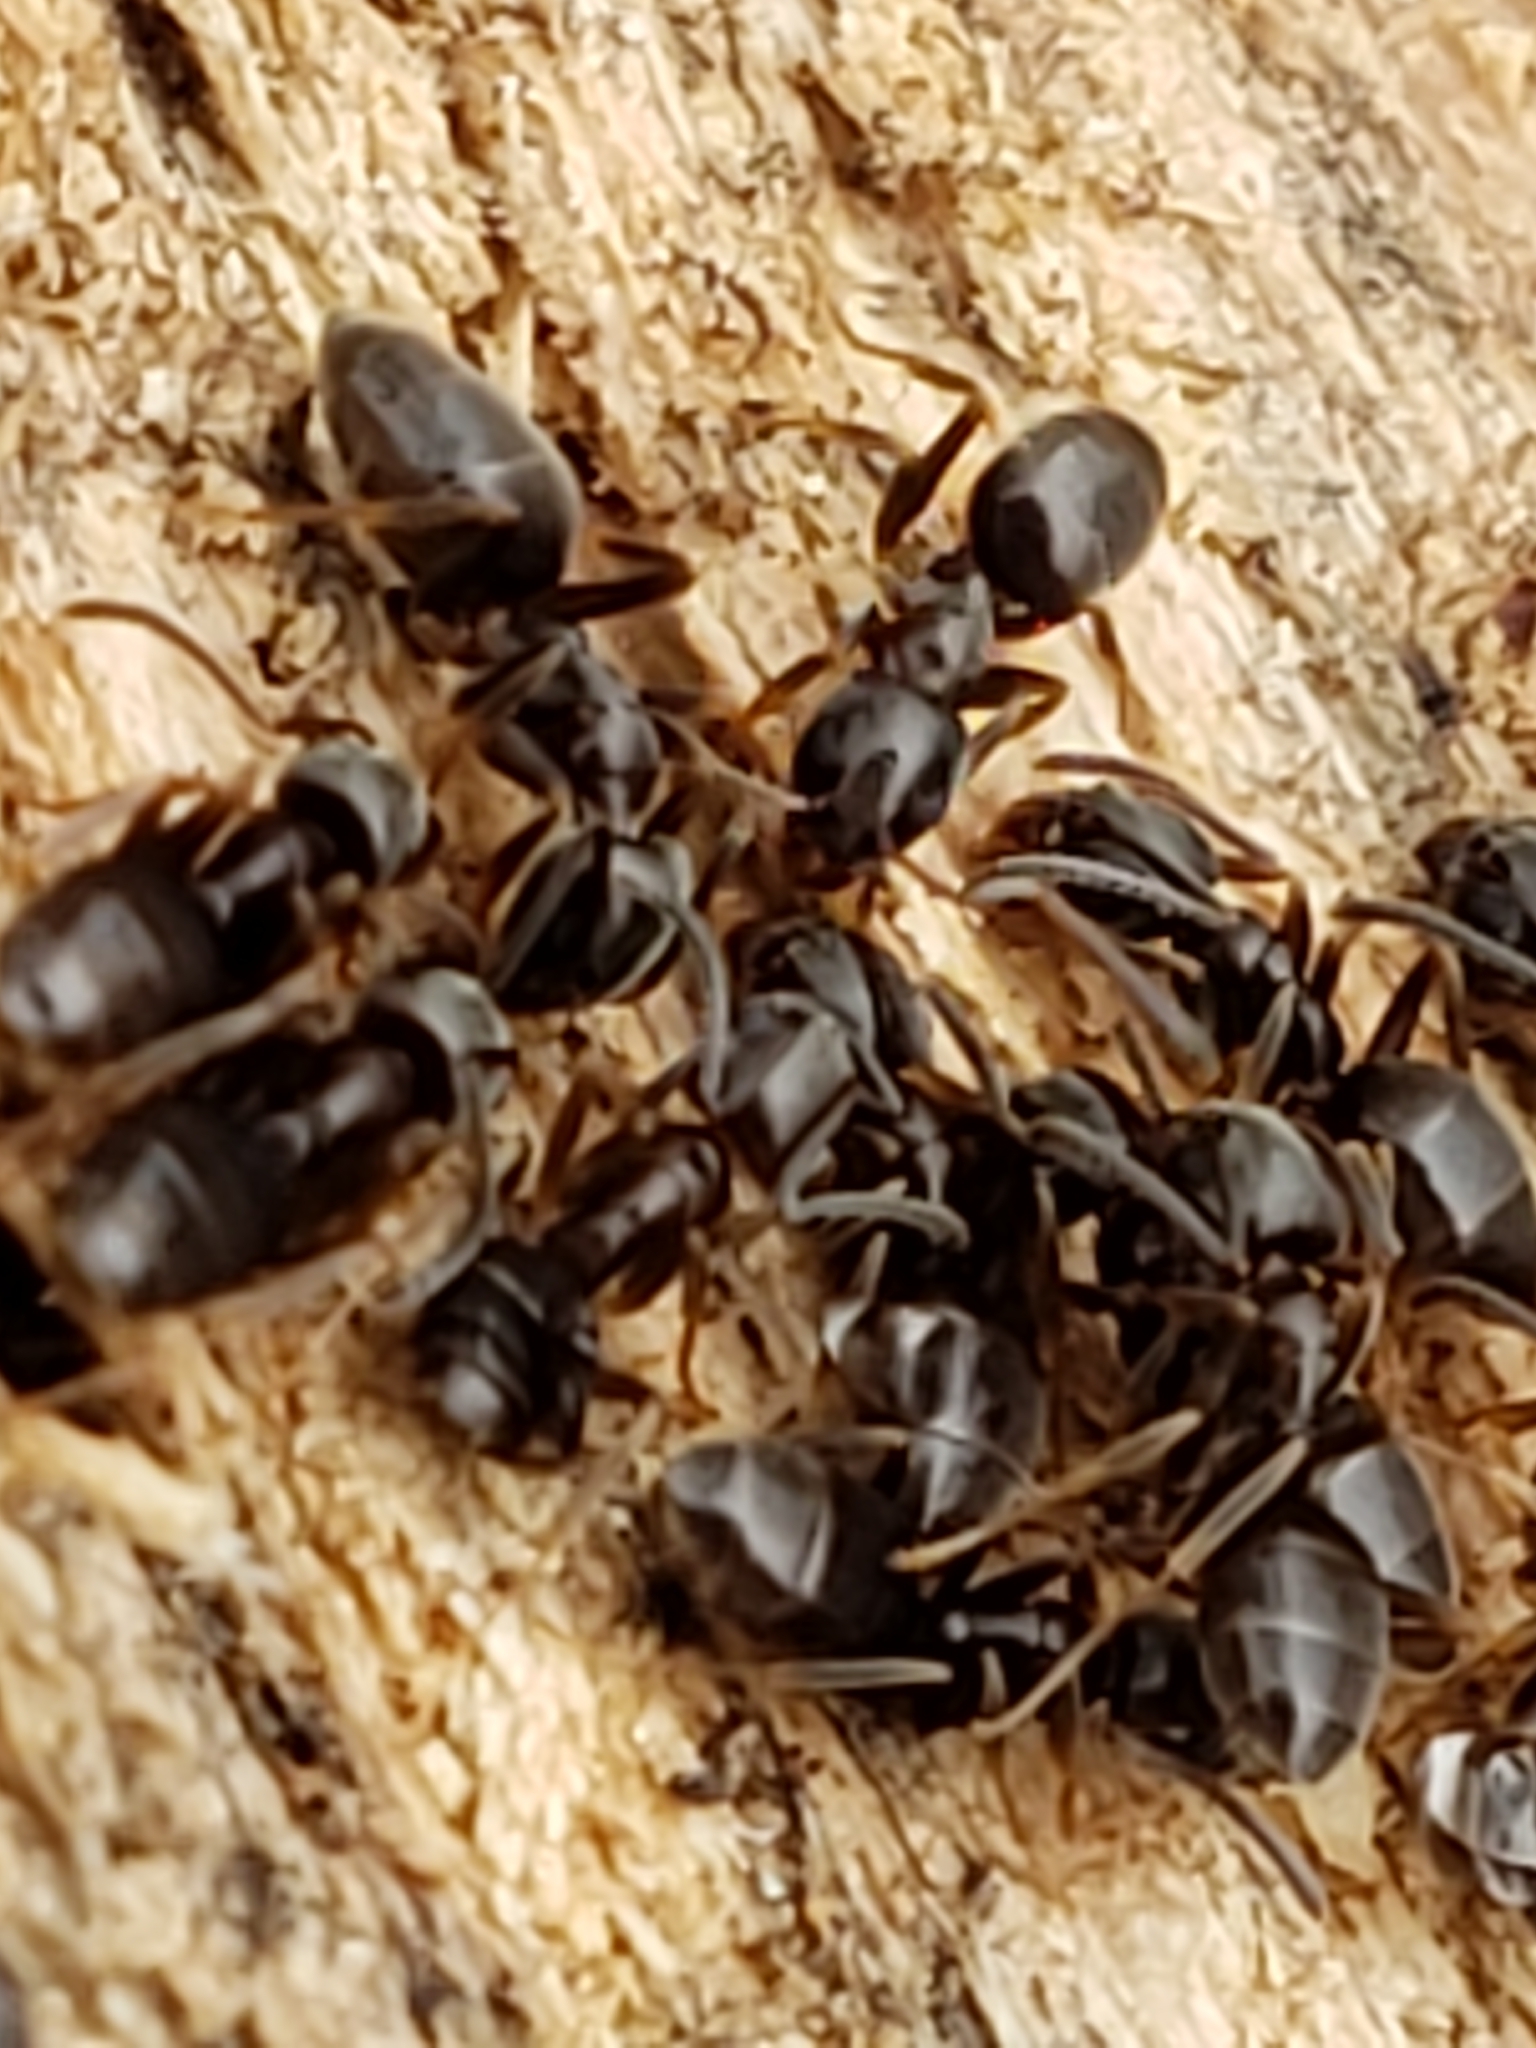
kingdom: Animalia
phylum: Arthropoda
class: Insecta
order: Hymenoptera
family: Formicidae
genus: Tapinoma
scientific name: Tapinoma sessile
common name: Odorous house ant
